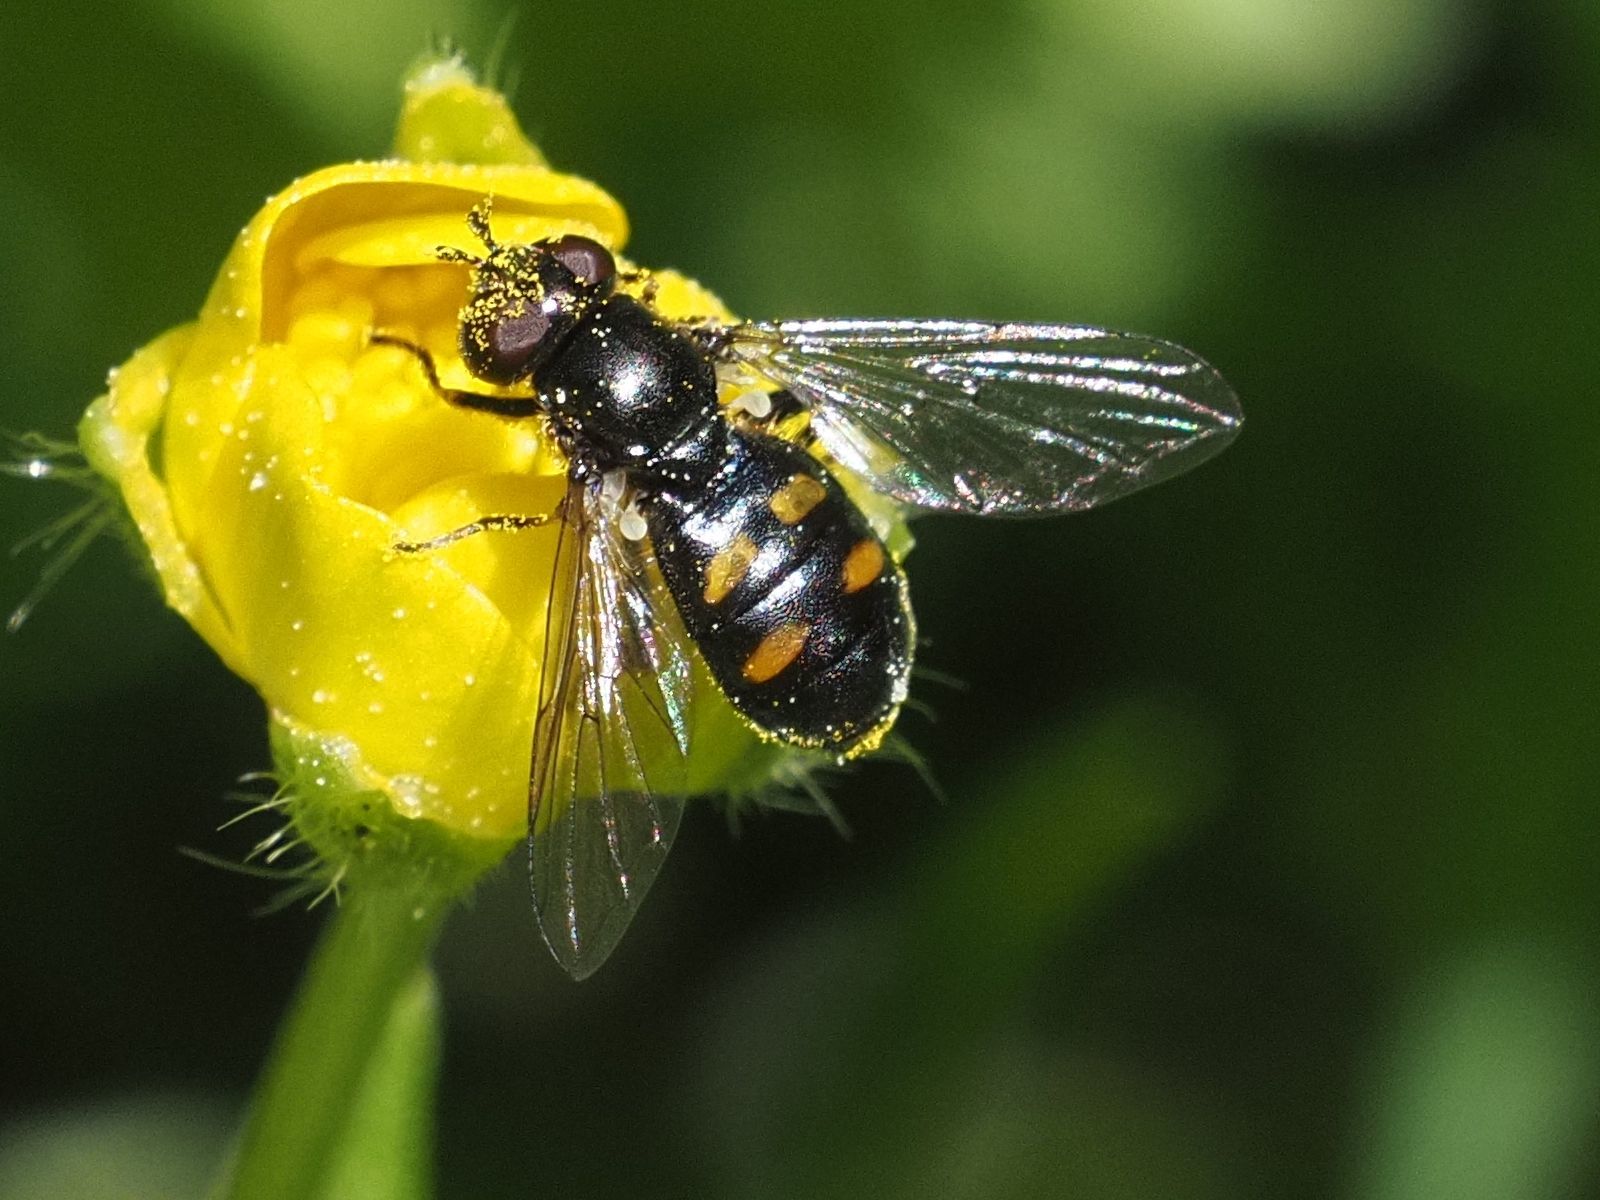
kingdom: Animalia
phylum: Arthropoda
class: Insecta
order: Diptera
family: Syrphidae
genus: Pipiza
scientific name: Pipiza quadrimaculata
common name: Four-spotted pipiza
